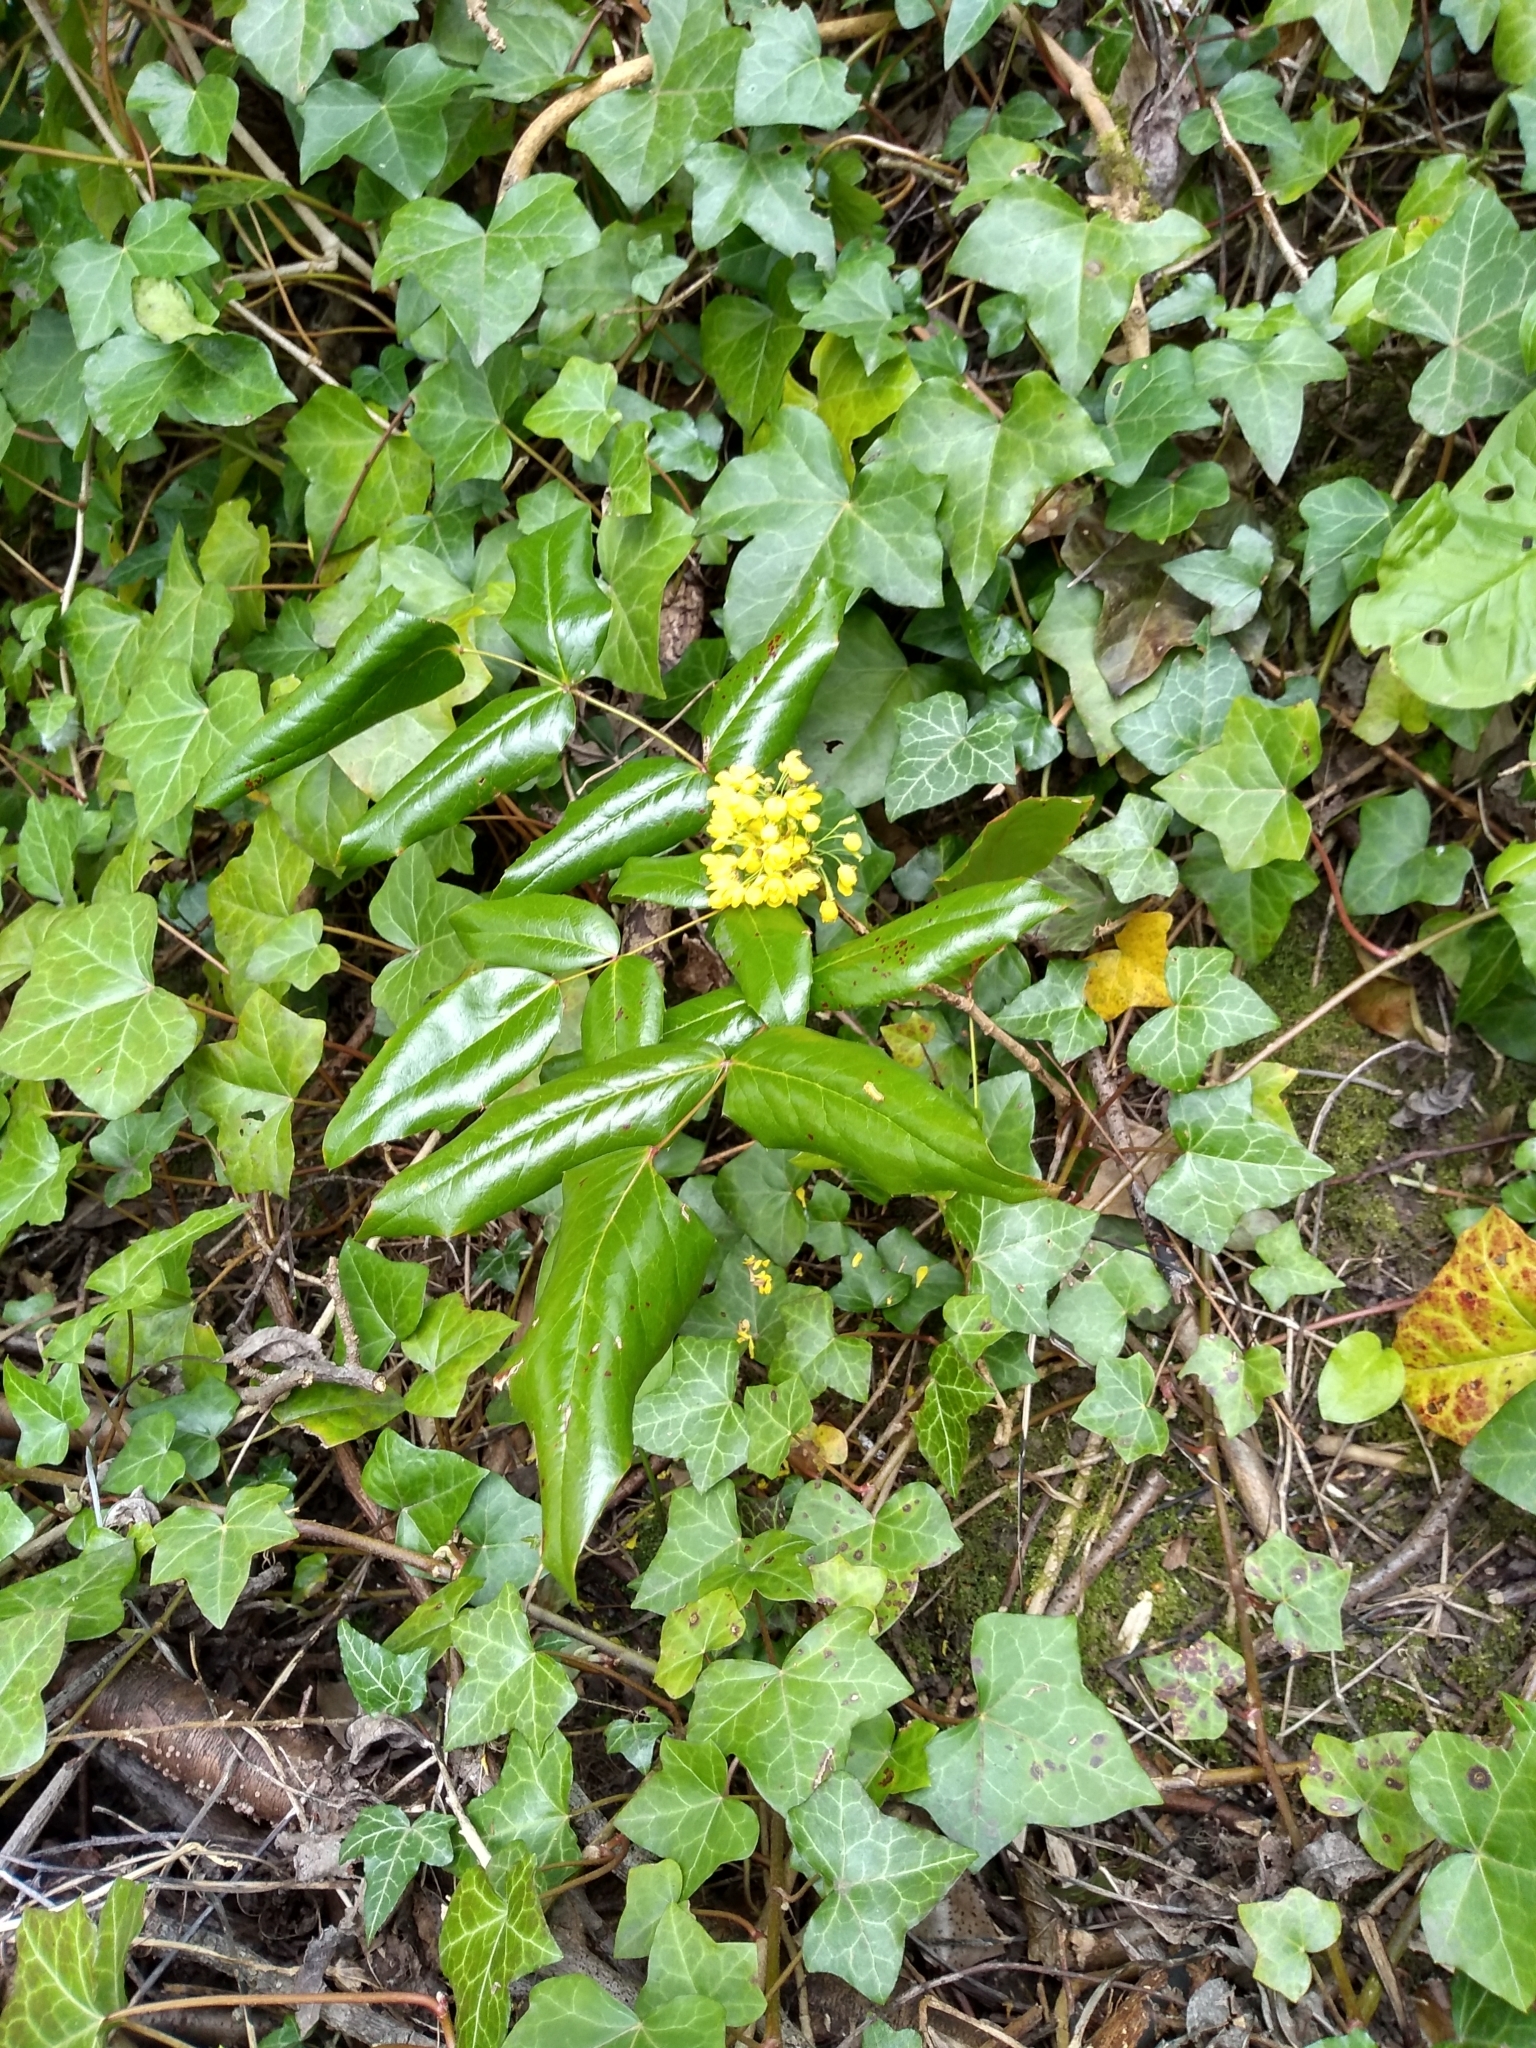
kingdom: Plantae
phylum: Tracheophyta
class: Magnoliopsida
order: Ranunculales
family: Berberidaceae
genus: Mahonia
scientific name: Mahonia aquifolium
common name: Oregon-grape
